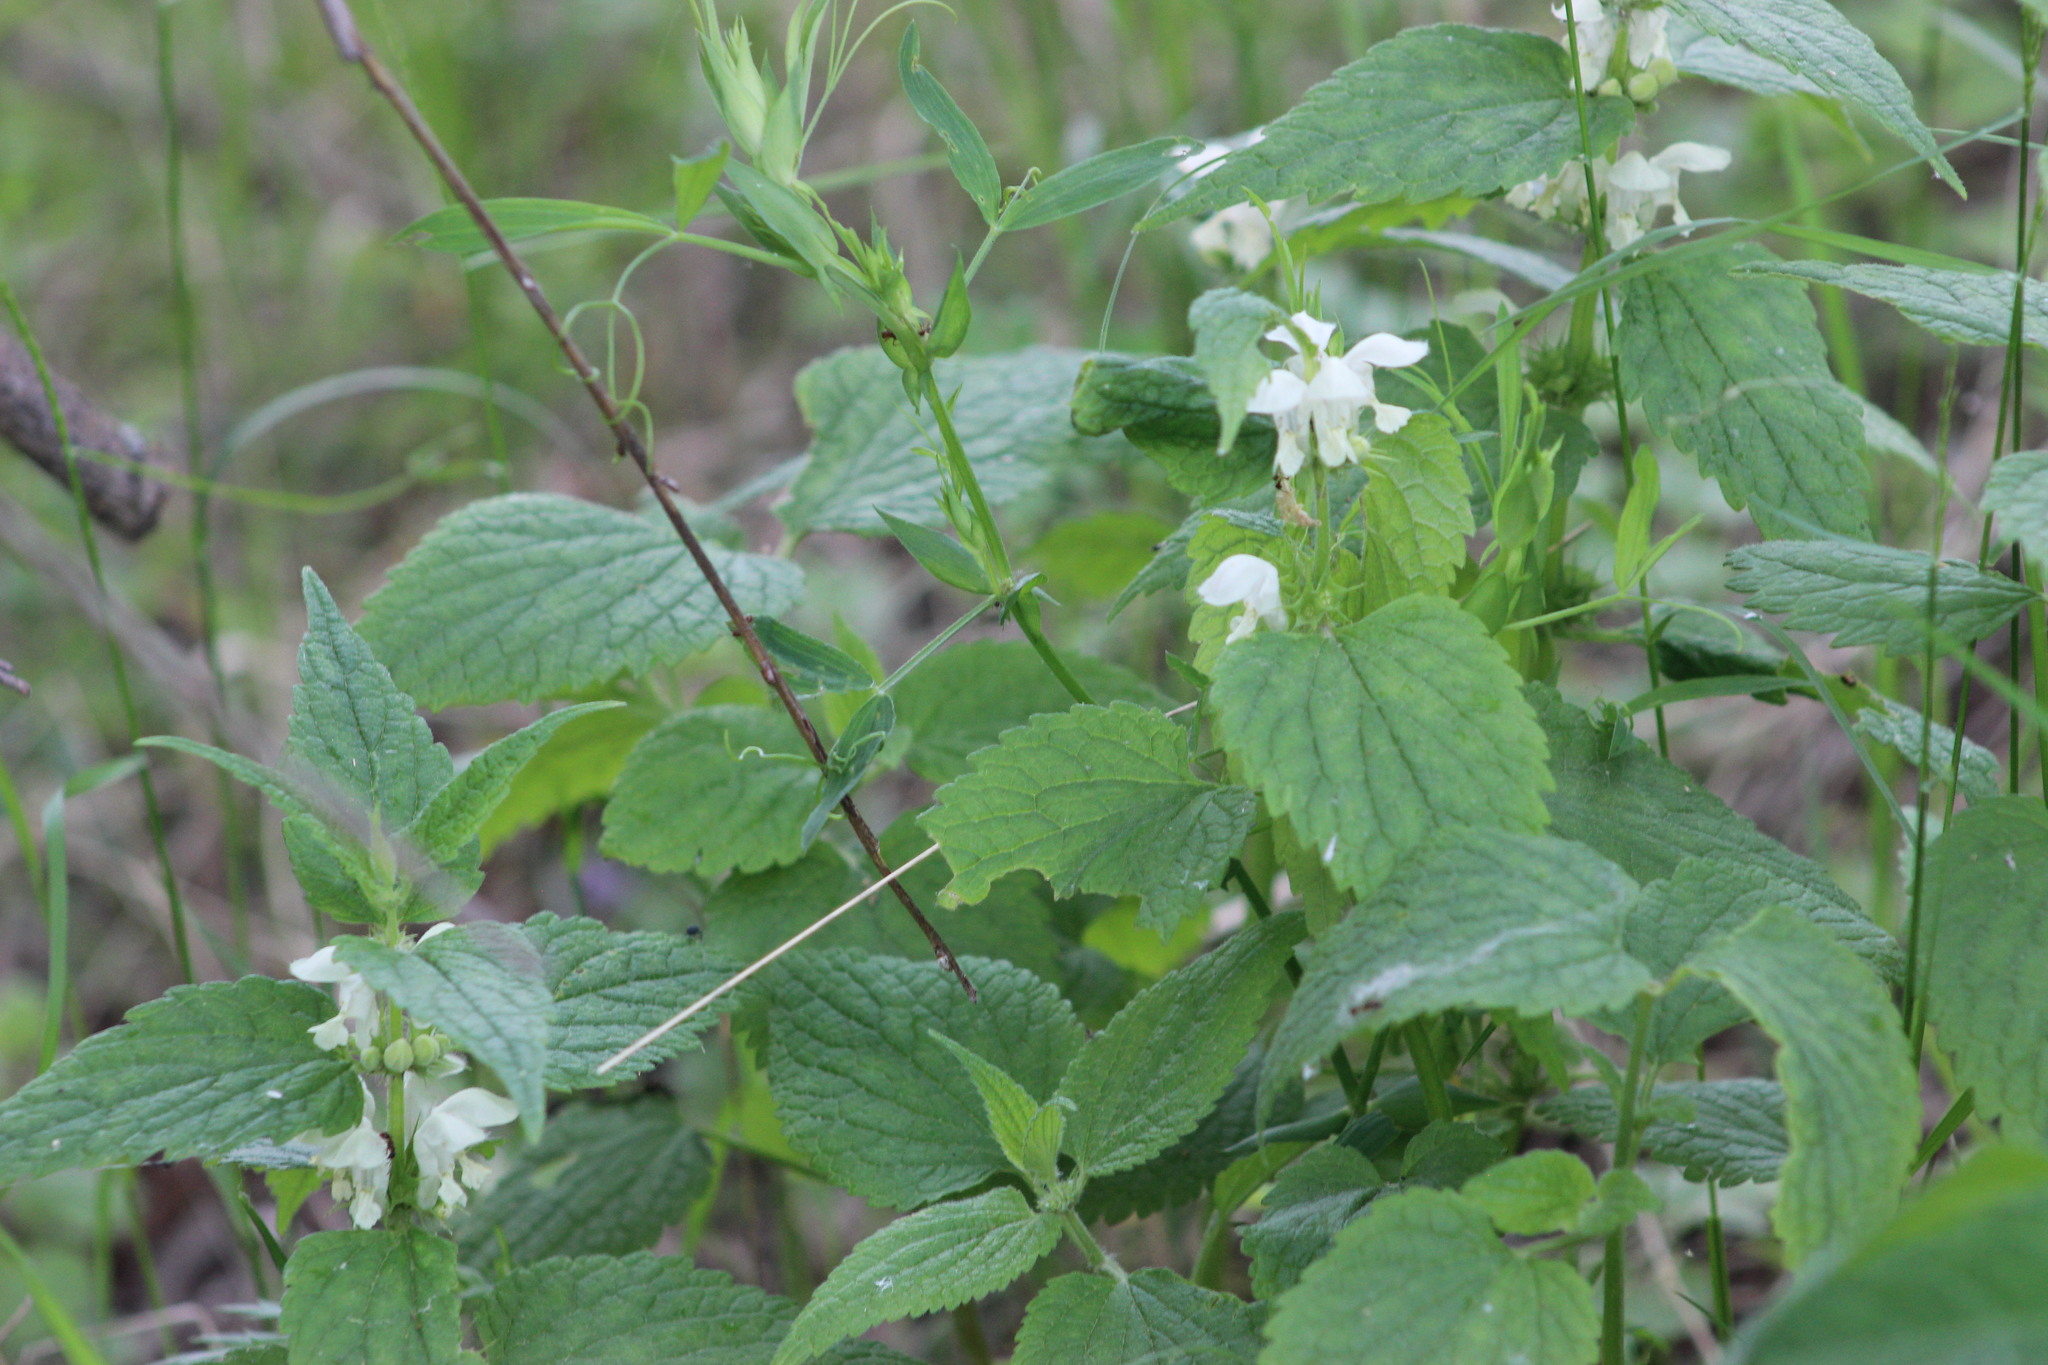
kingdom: Plantae
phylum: Tracheophyta
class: Magnoliopsida
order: Lamiales
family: Lamiaceae
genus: Lamium
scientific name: Lamium album
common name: White dead-nettle
